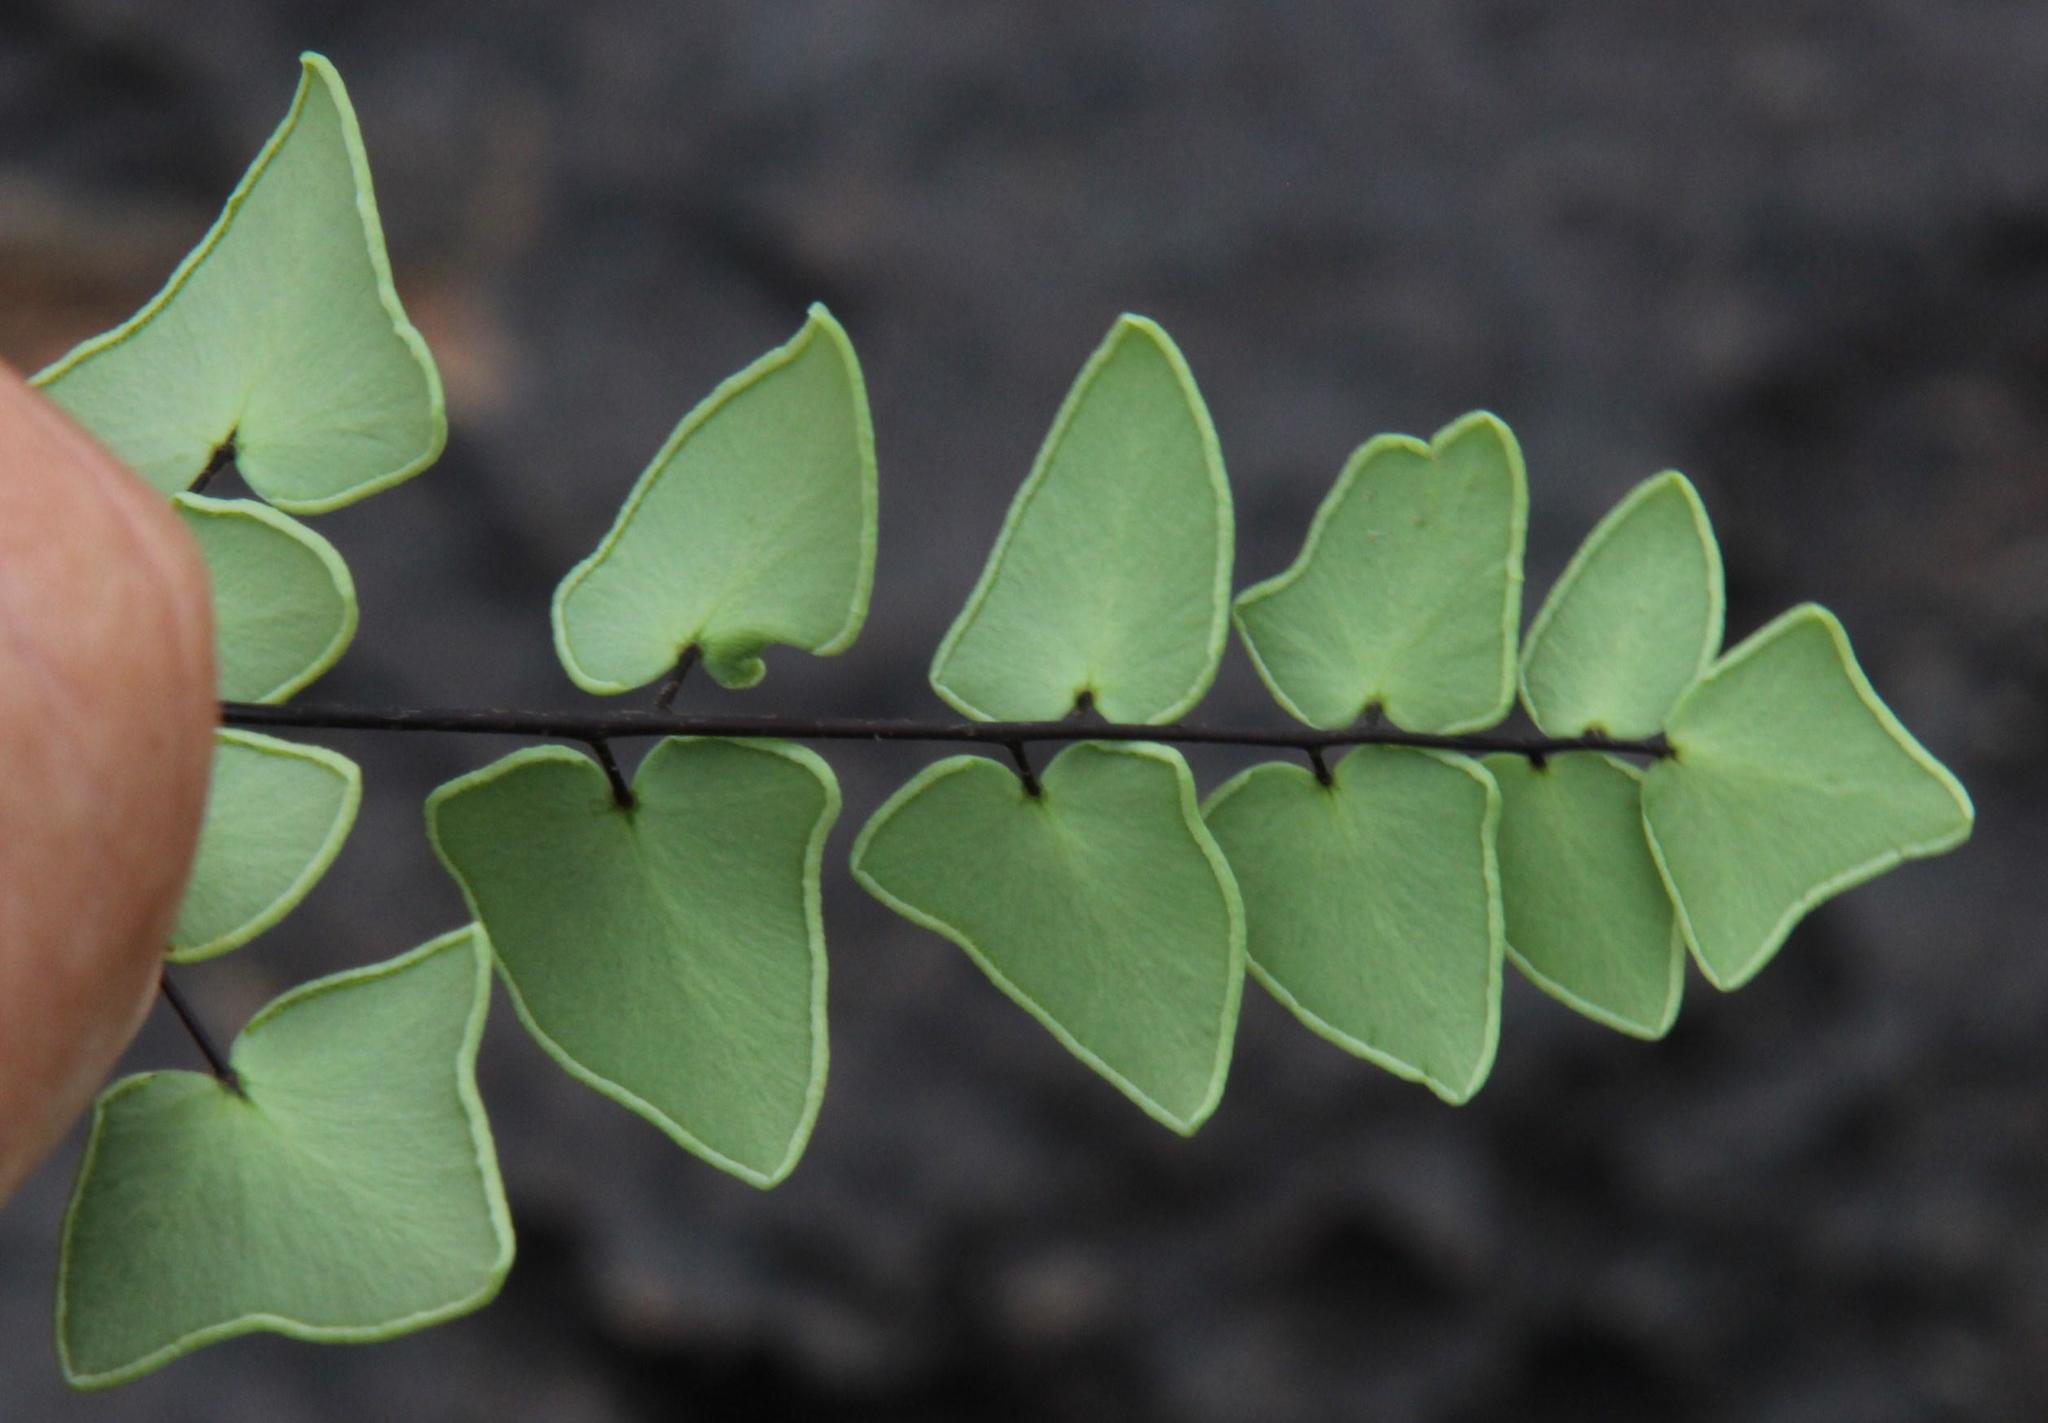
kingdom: Plantae
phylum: Tracheophyta
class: Polypodiopsida
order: Polypodiales
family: Pteridaceae
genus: Pellaea
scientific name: Pellaea calomelanos
